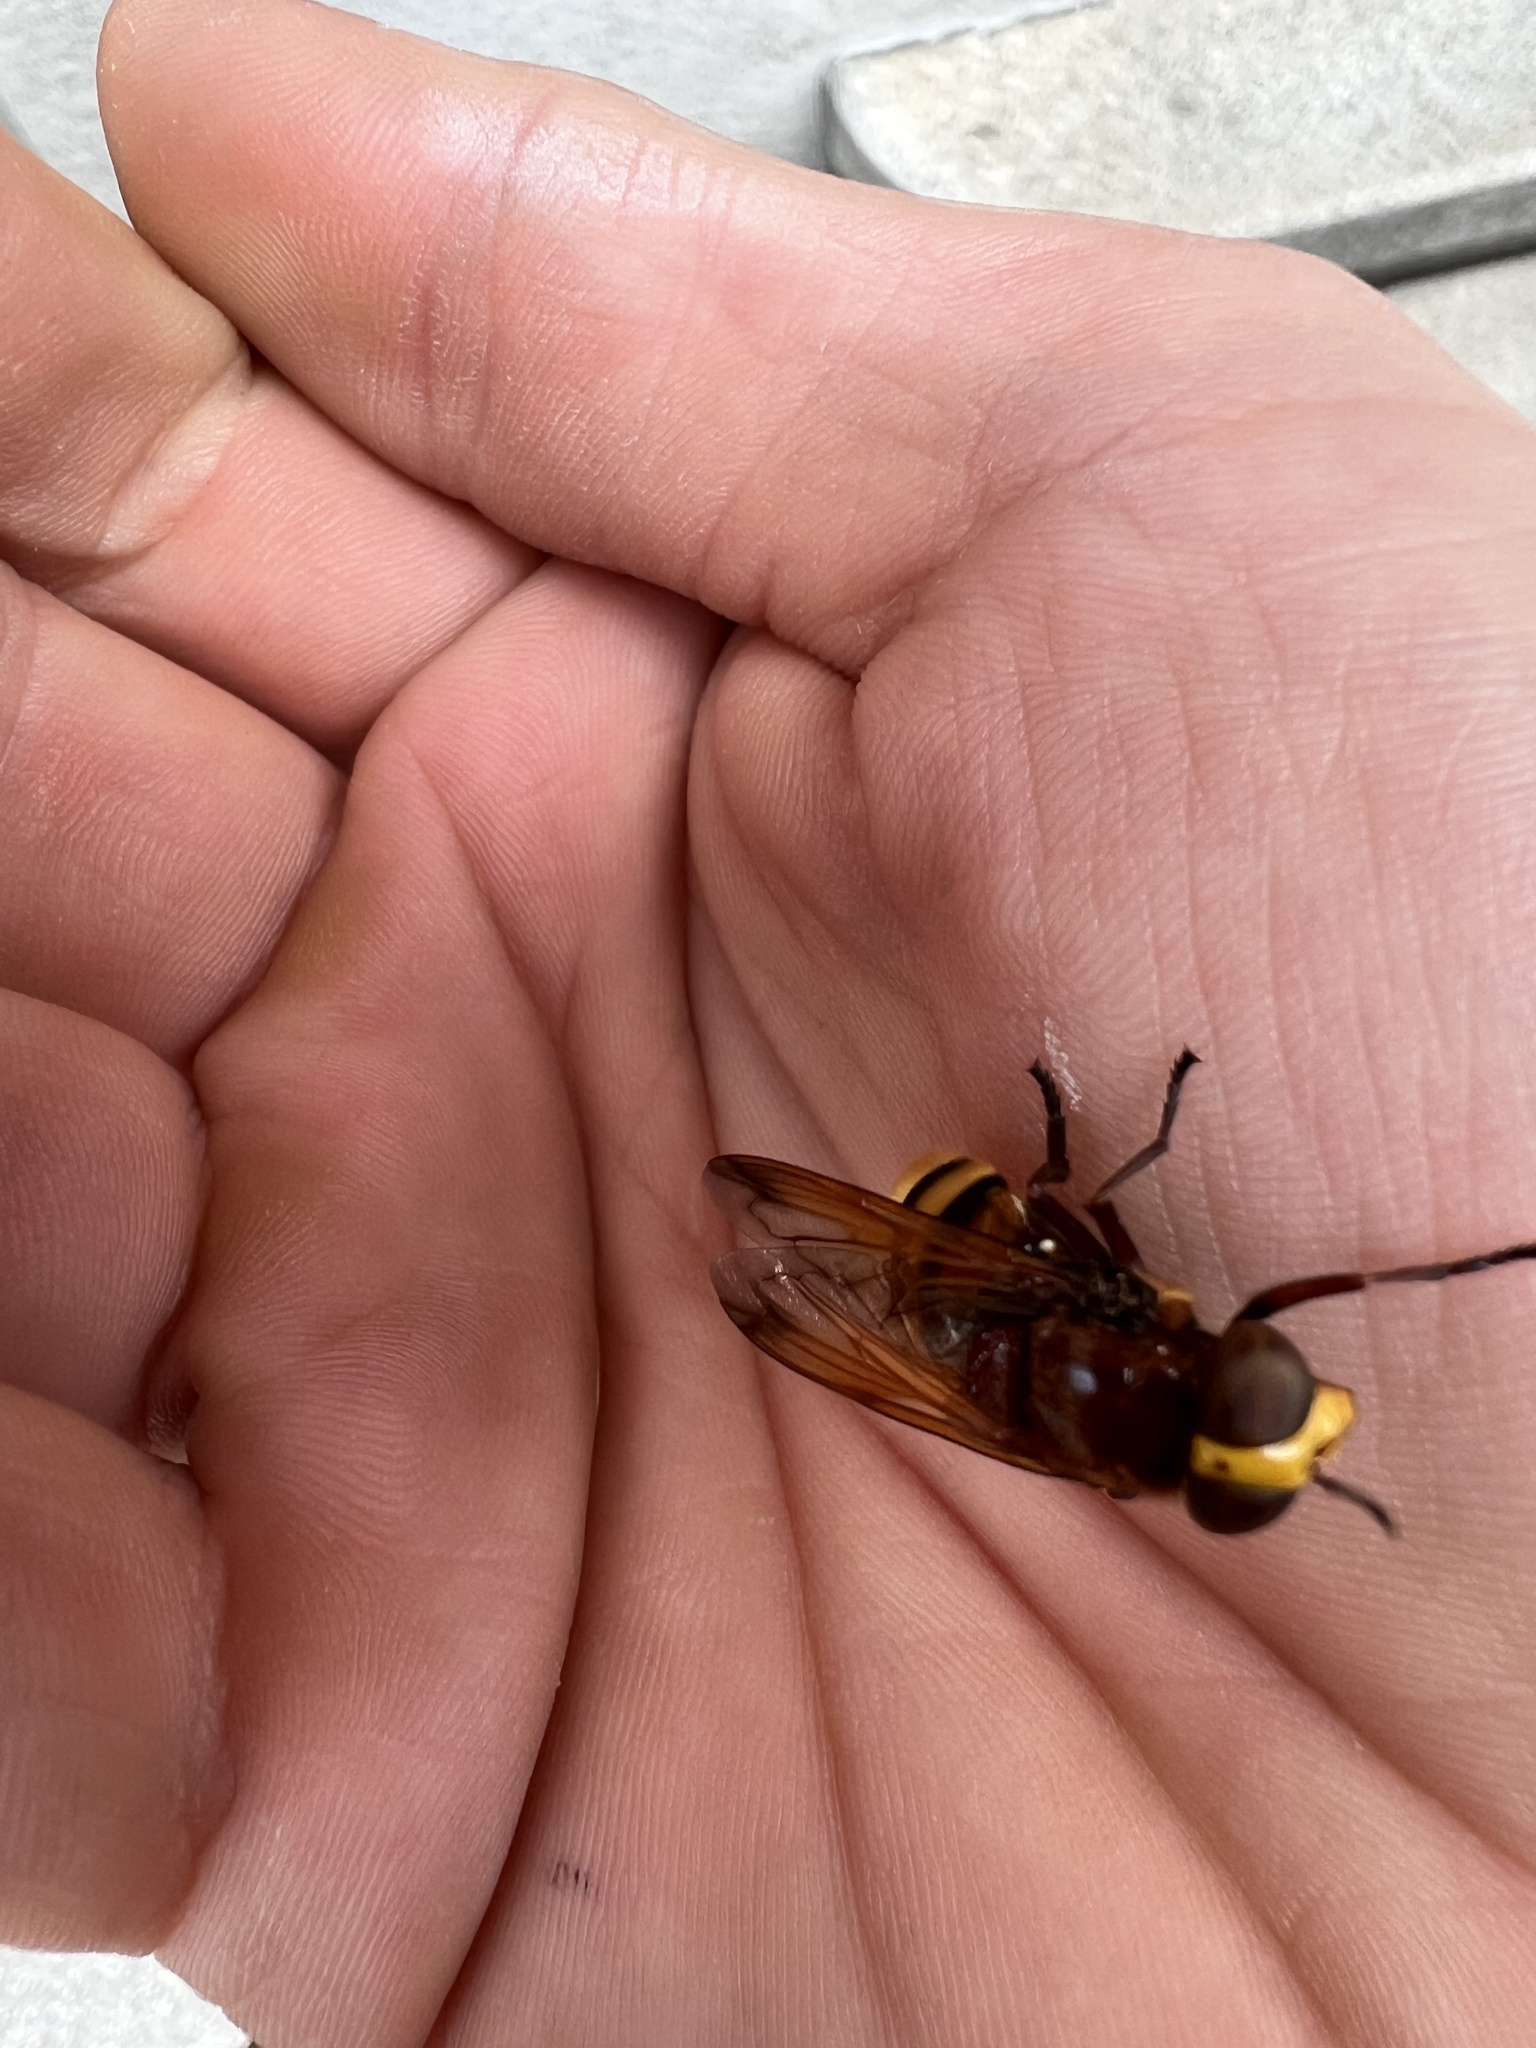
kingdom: Animalia
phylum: Arthropoda
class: Insecta
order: Diptera
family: Syrphidae
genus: Volucella
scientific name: Volucella zonaria
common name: Hornet hoverfly
